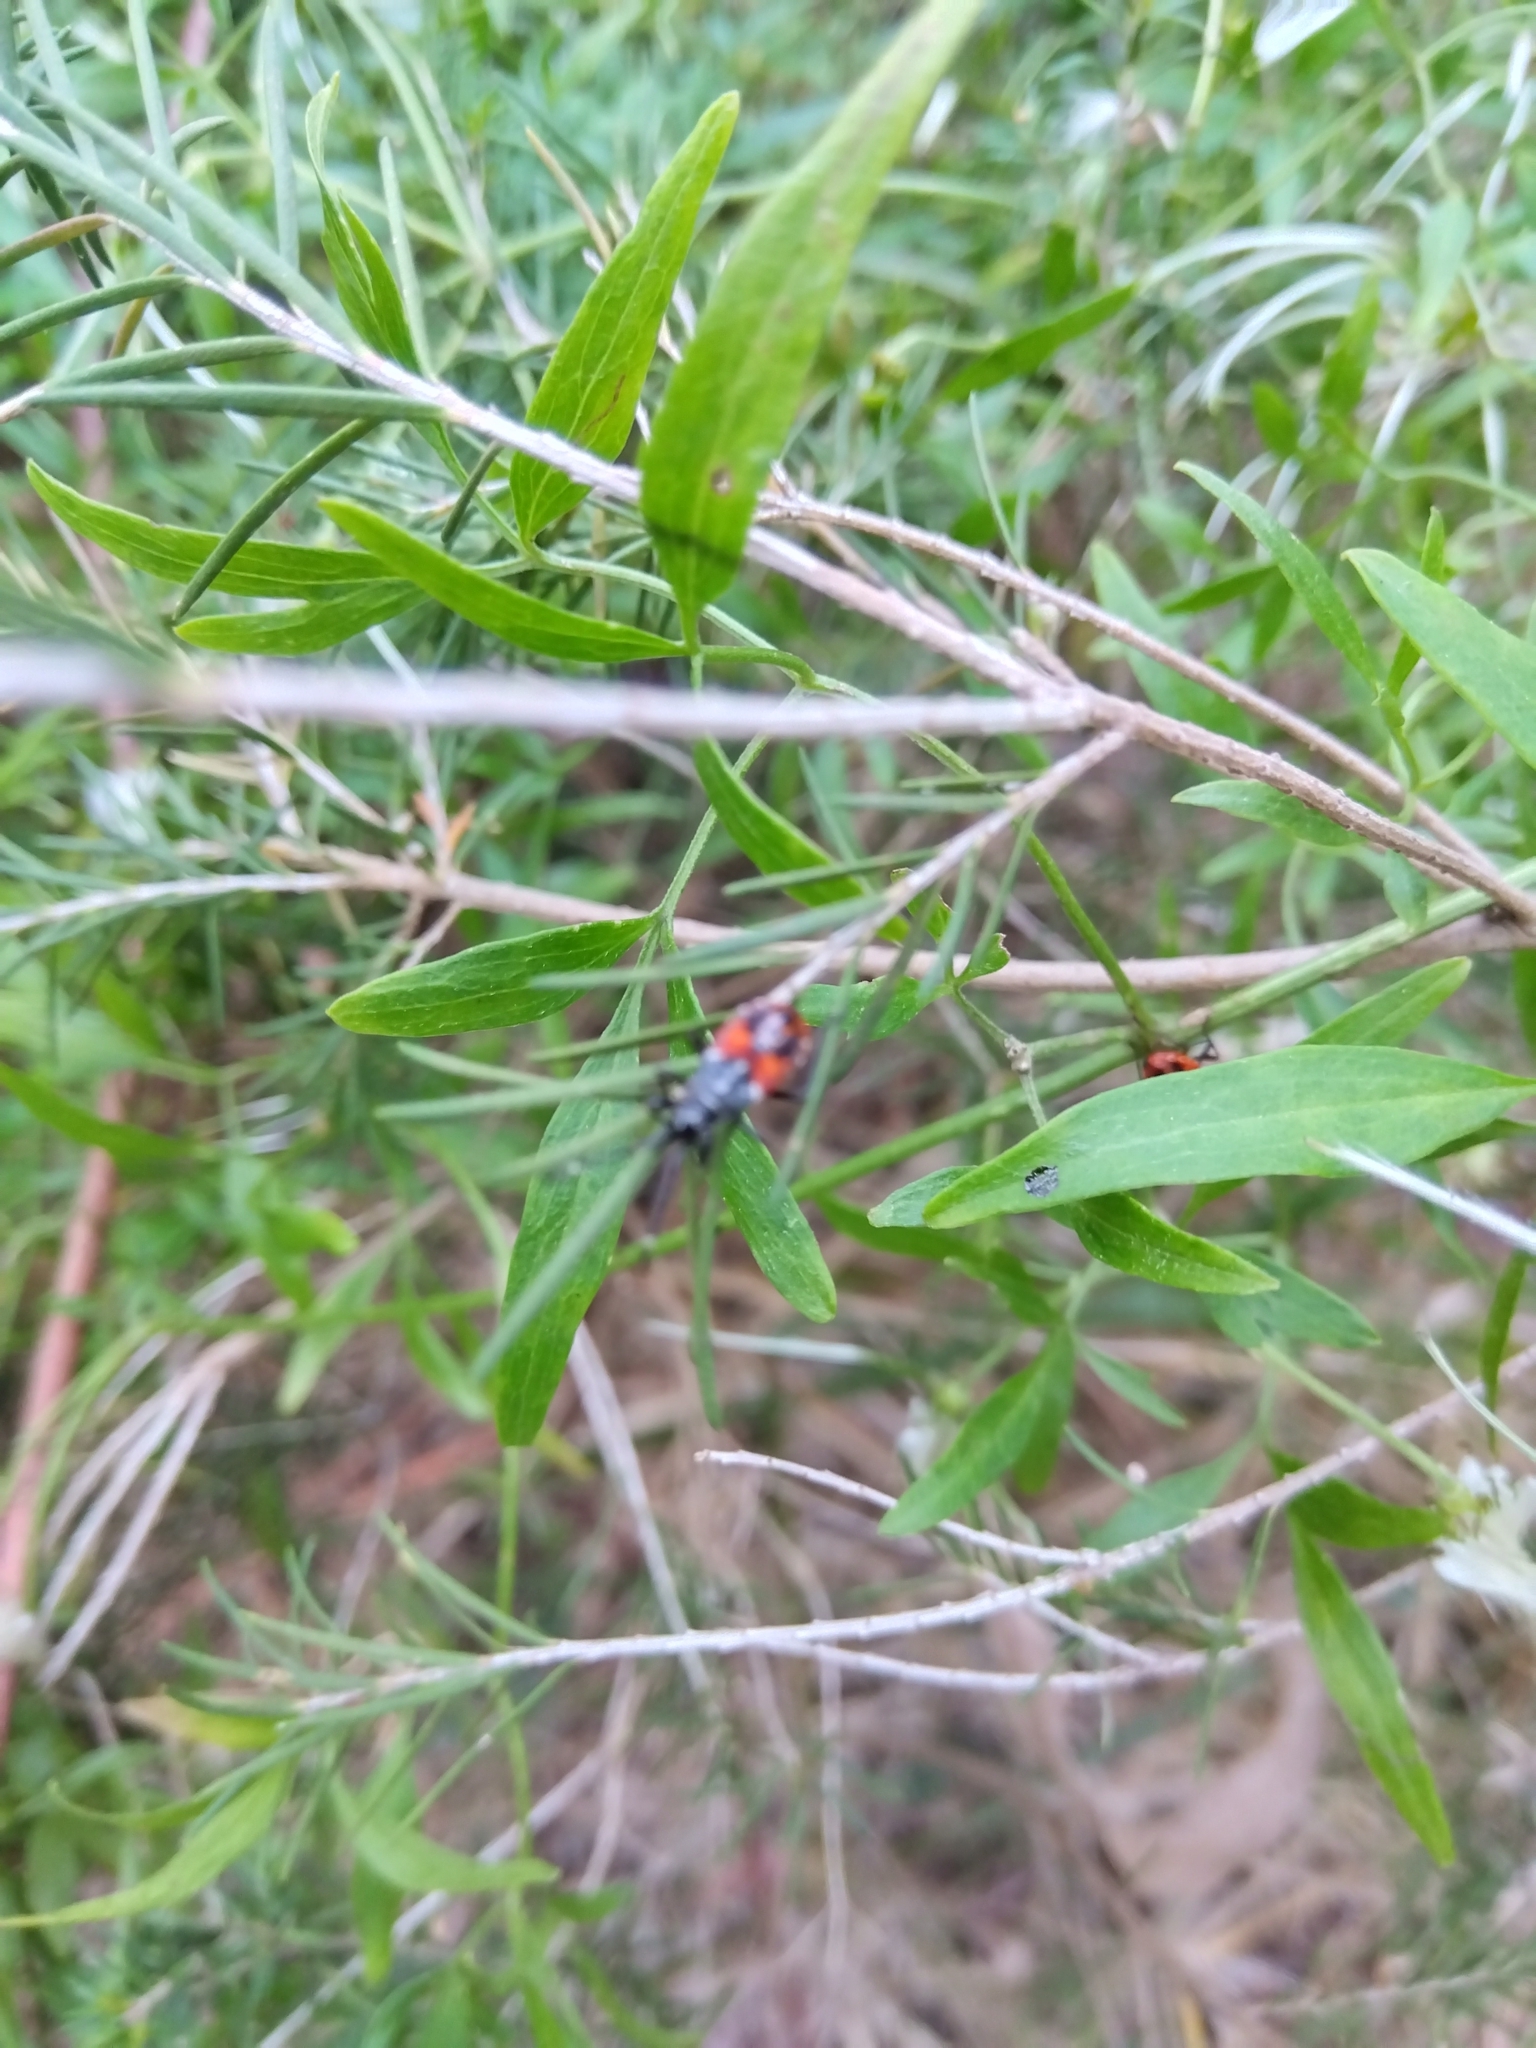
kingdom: Animalia
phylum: Arthropoda
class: Insecta
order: Hemiptera
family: Pyrrhocoridae
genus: Dindymus
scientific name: Dindymus
